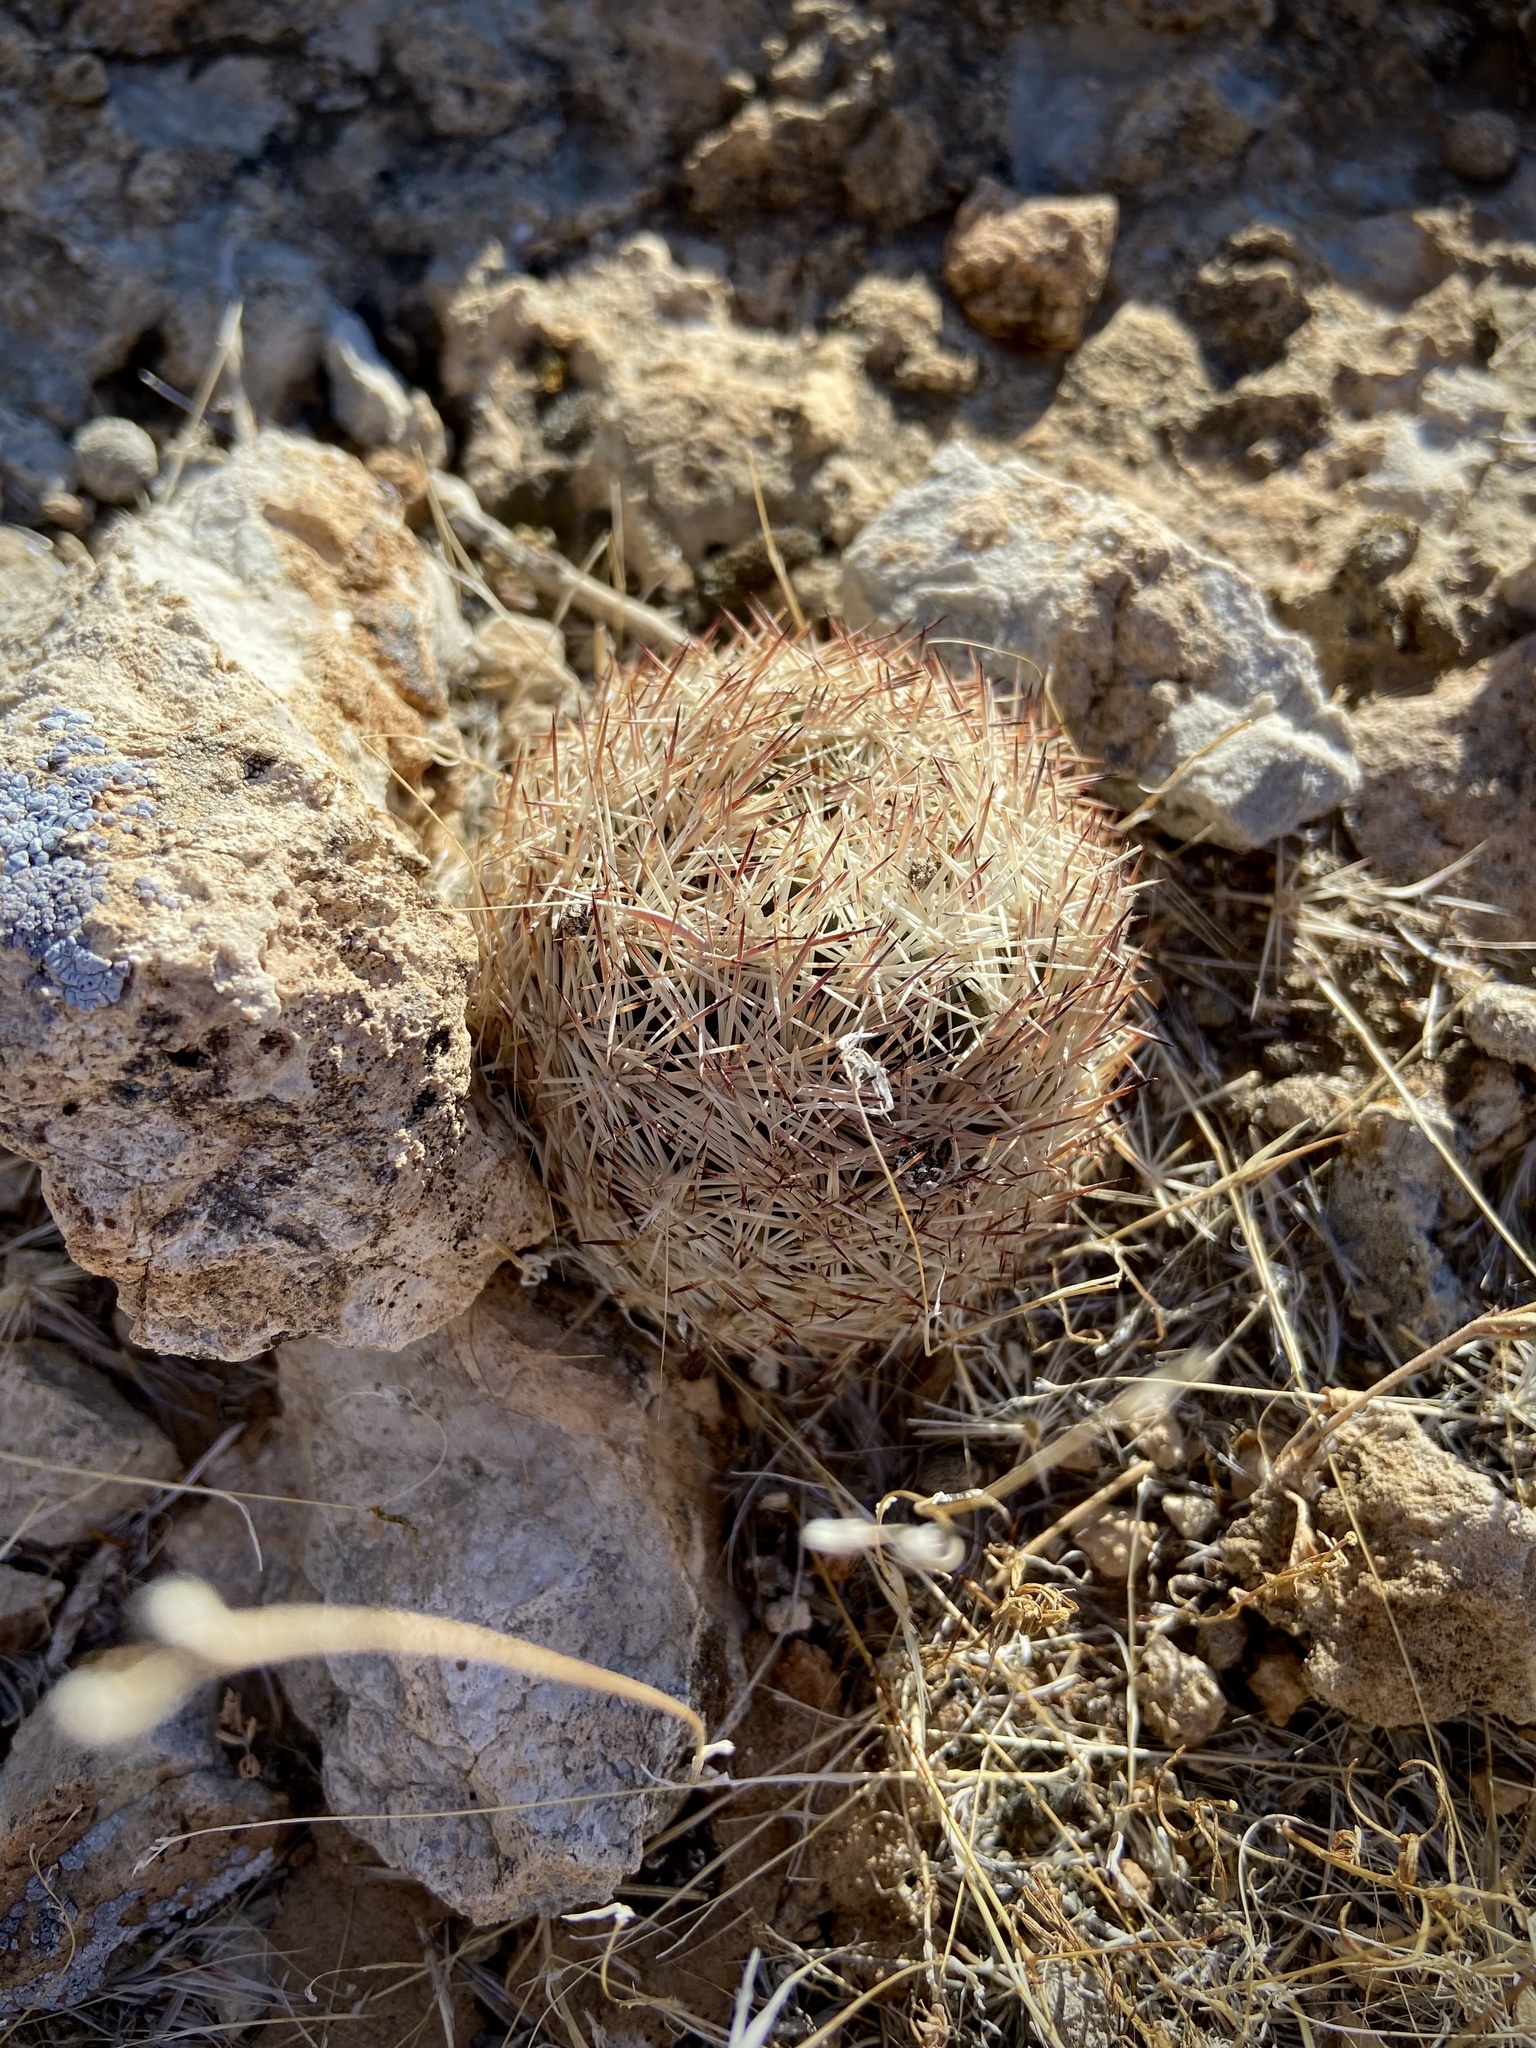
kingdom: Plantae
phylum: Tracheophyta
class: Magnoliopsida
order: Caryophyllales
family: Cactaceae
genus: Pelecyphora
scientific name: Pelecyphora dasyacantha
